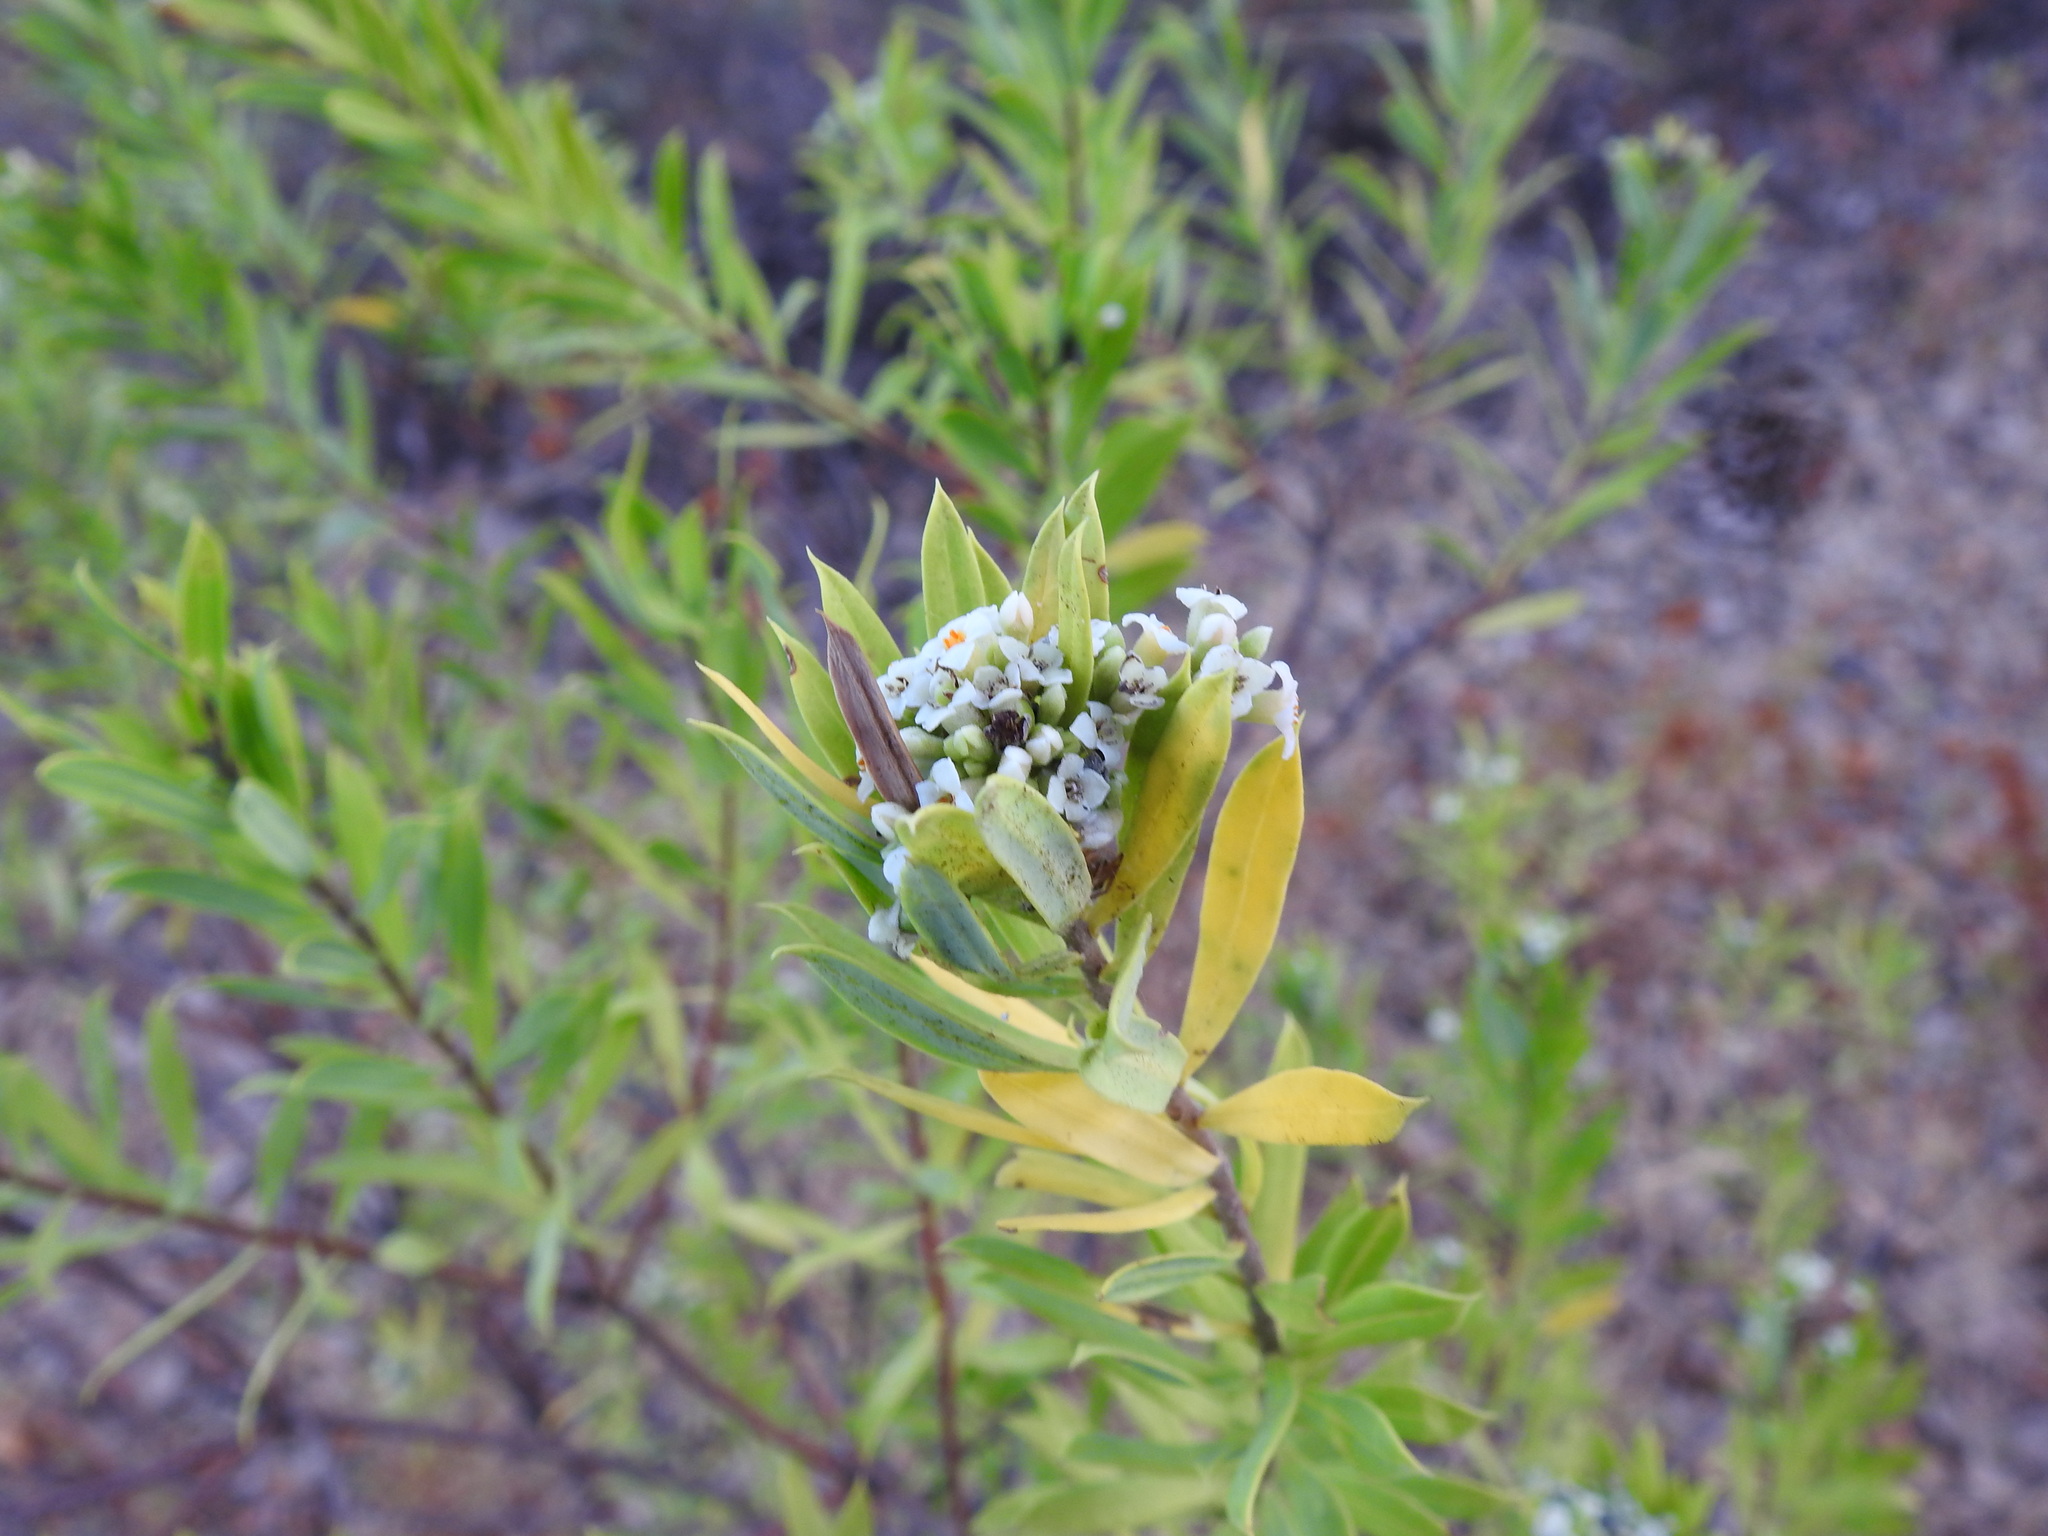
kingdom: Plantae
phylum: Tracheophyta
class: Magnoliopsida
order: Malvales
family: Thymelaeaceae
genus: Daphne
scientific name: Daphne gnidium
